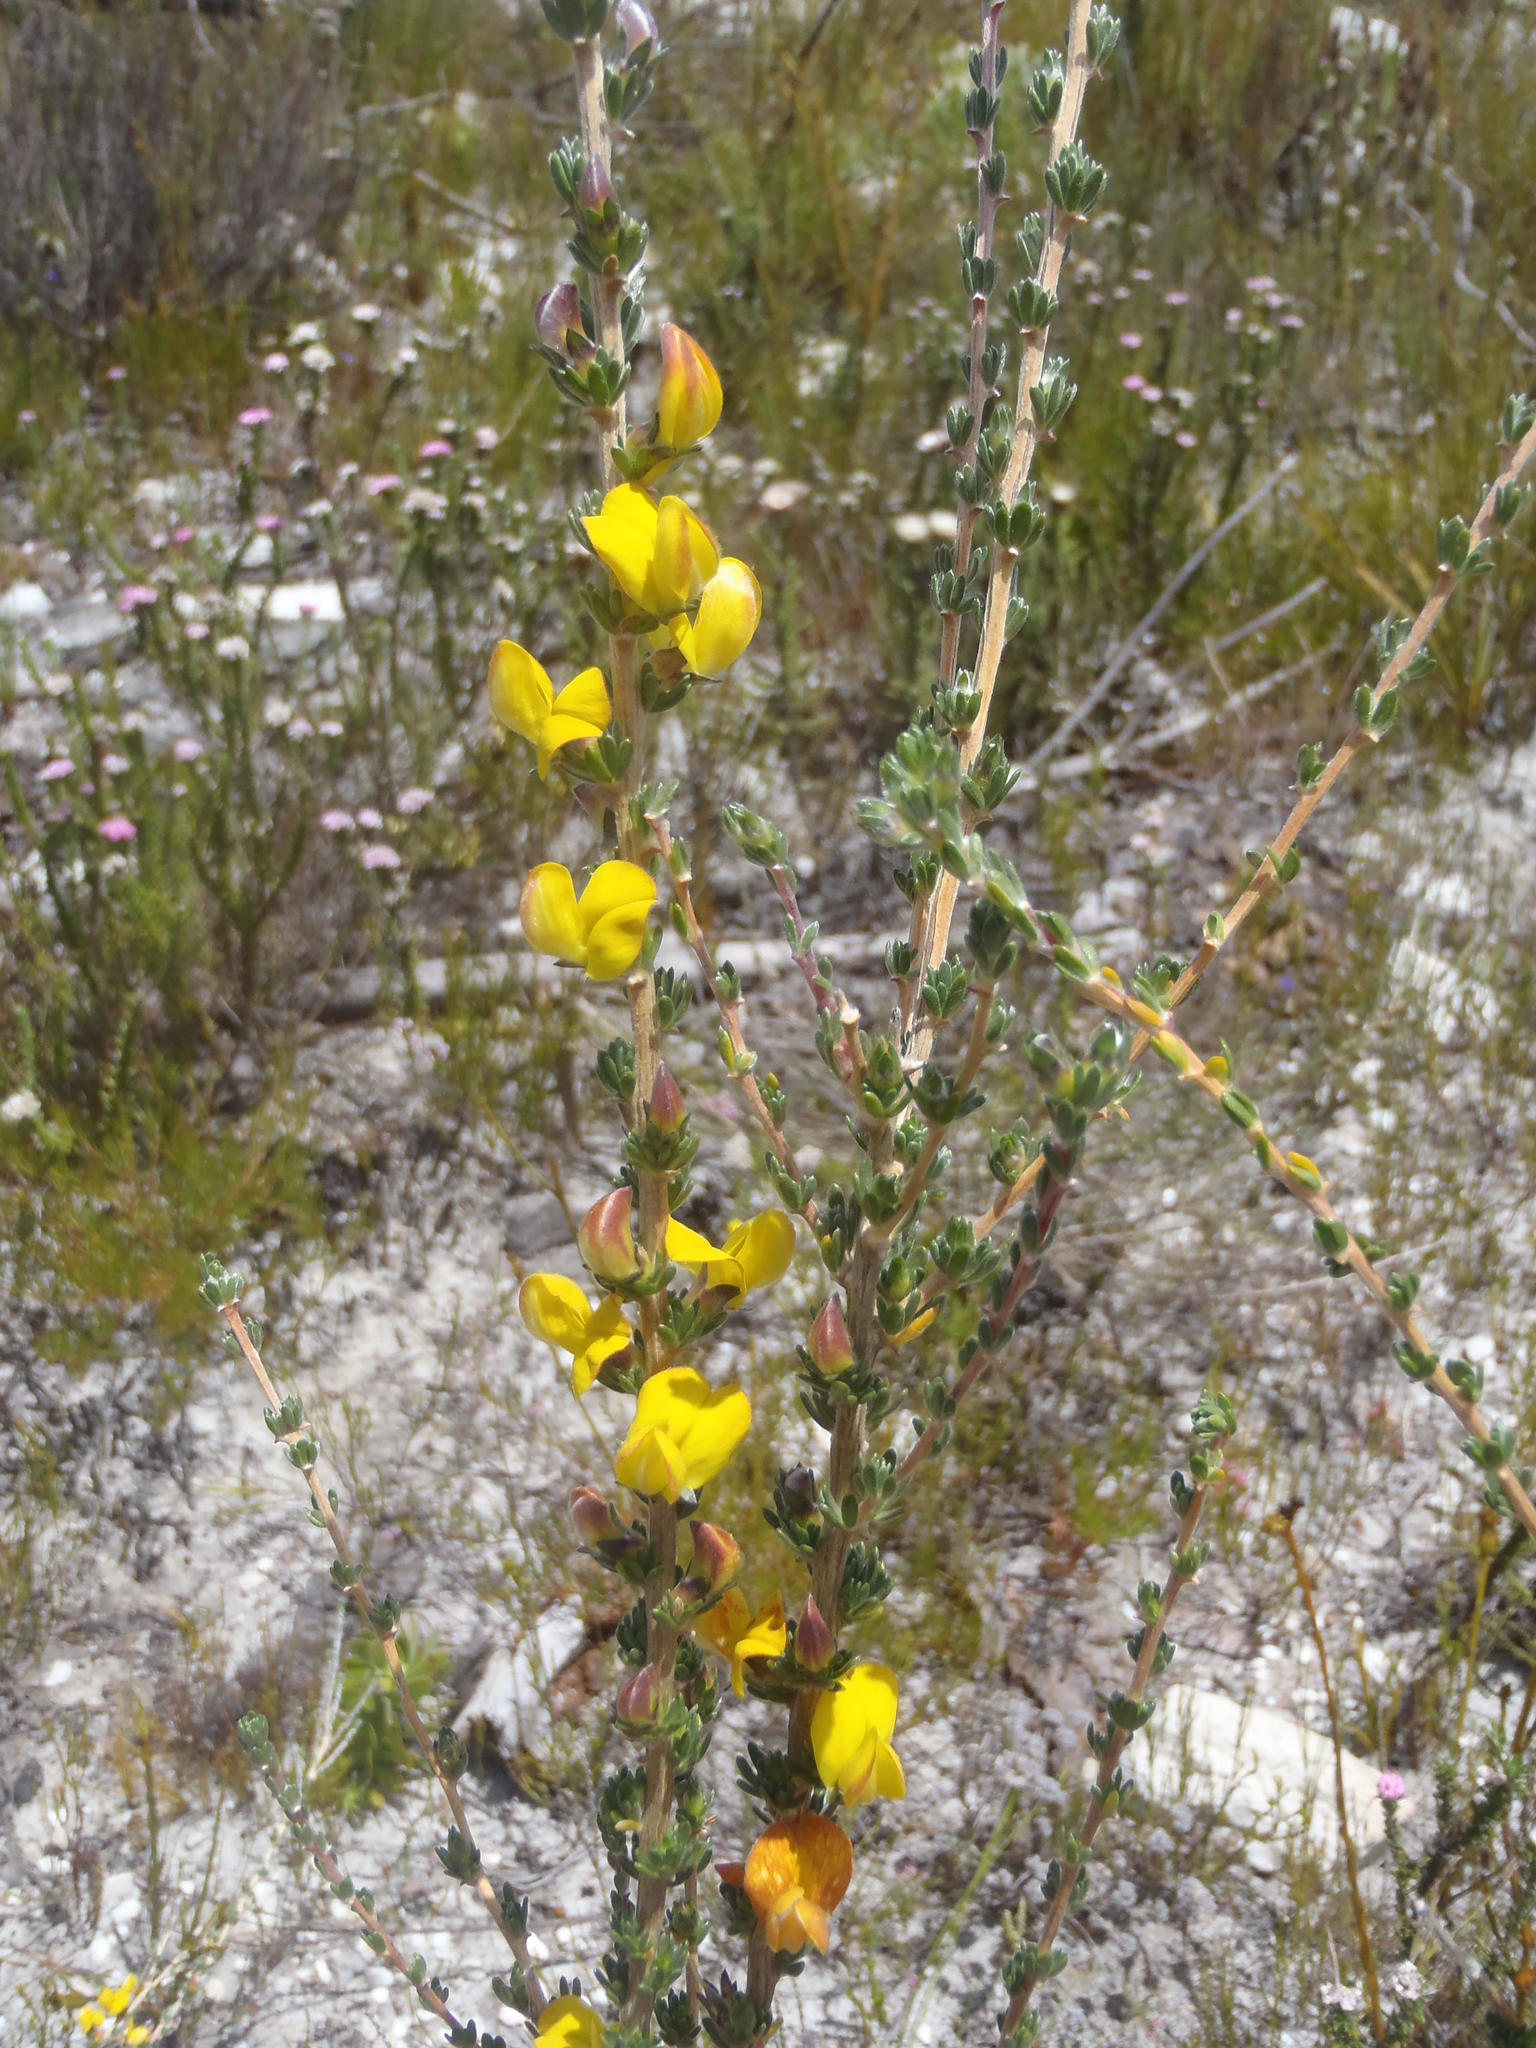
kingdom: Plantae
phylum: Tracheophyta
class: Magnoliopsida
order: Fabales
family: Fabaceae
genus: Aspalathus
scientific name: Aspalathus oblongifolia
